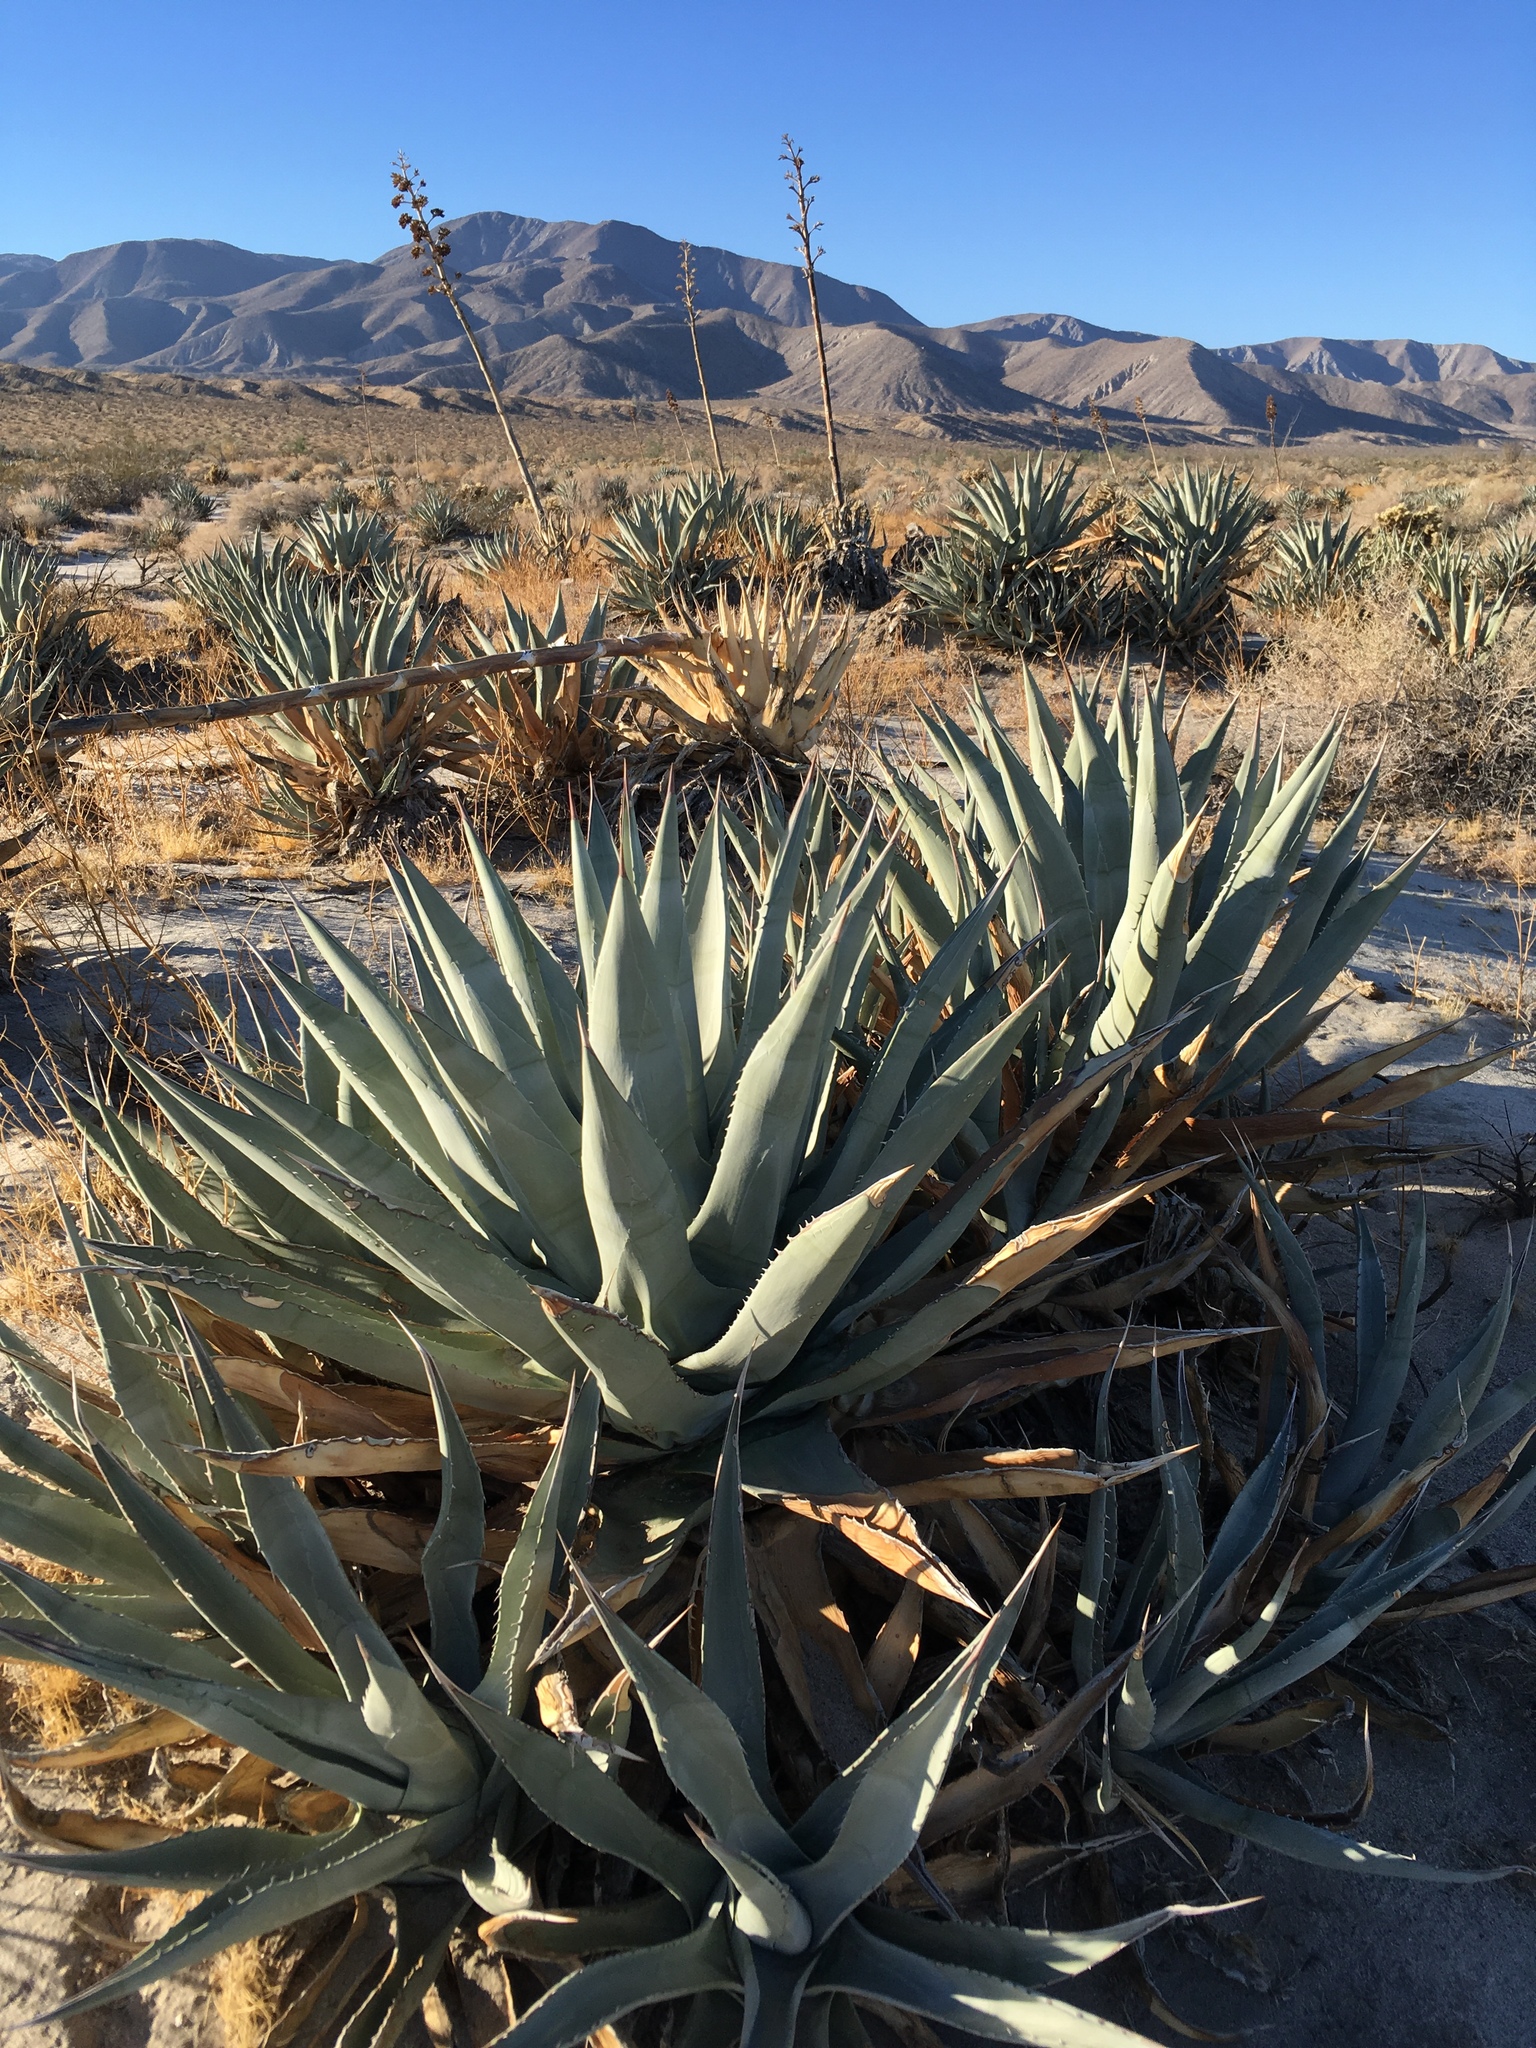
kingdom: Plantae
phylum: Tracheophyta
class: Liliopsida
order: Asparagales
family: Asparagaceae
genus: Agave
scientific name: Agave deserti
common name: Desert agave
